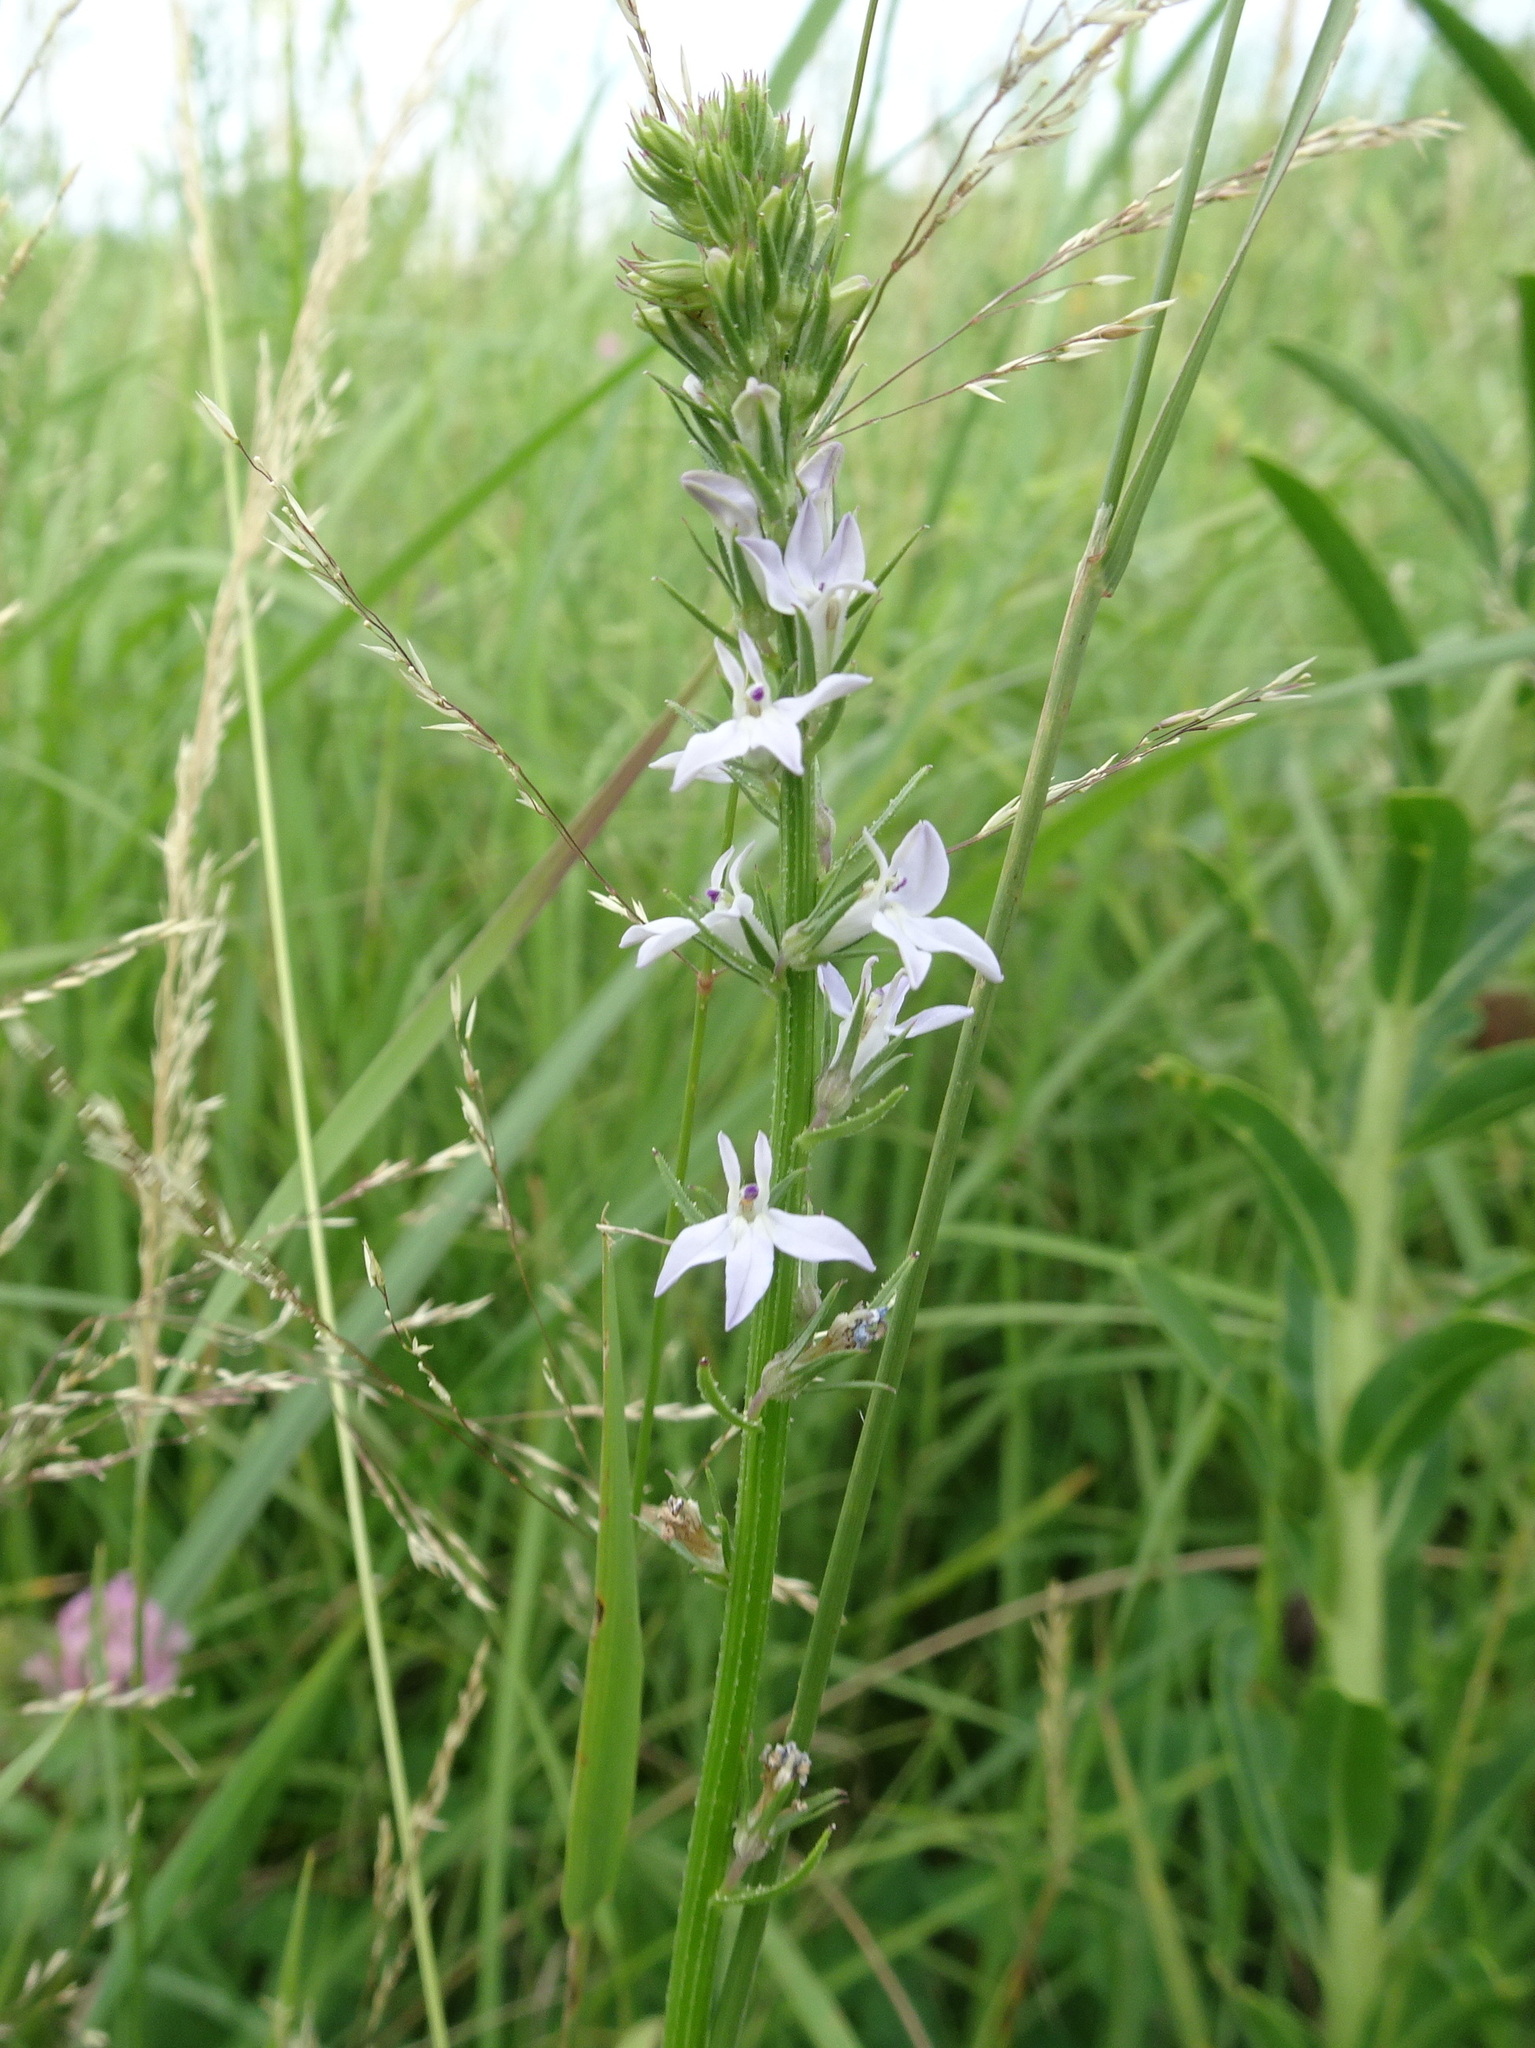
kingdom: Plantae
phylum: Tracheophyta
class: Magnoliopsida
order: Asterales
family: Campanulaceae
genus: Lobelia
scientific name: Lobelia spicata
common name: Pale-spike lobelia
